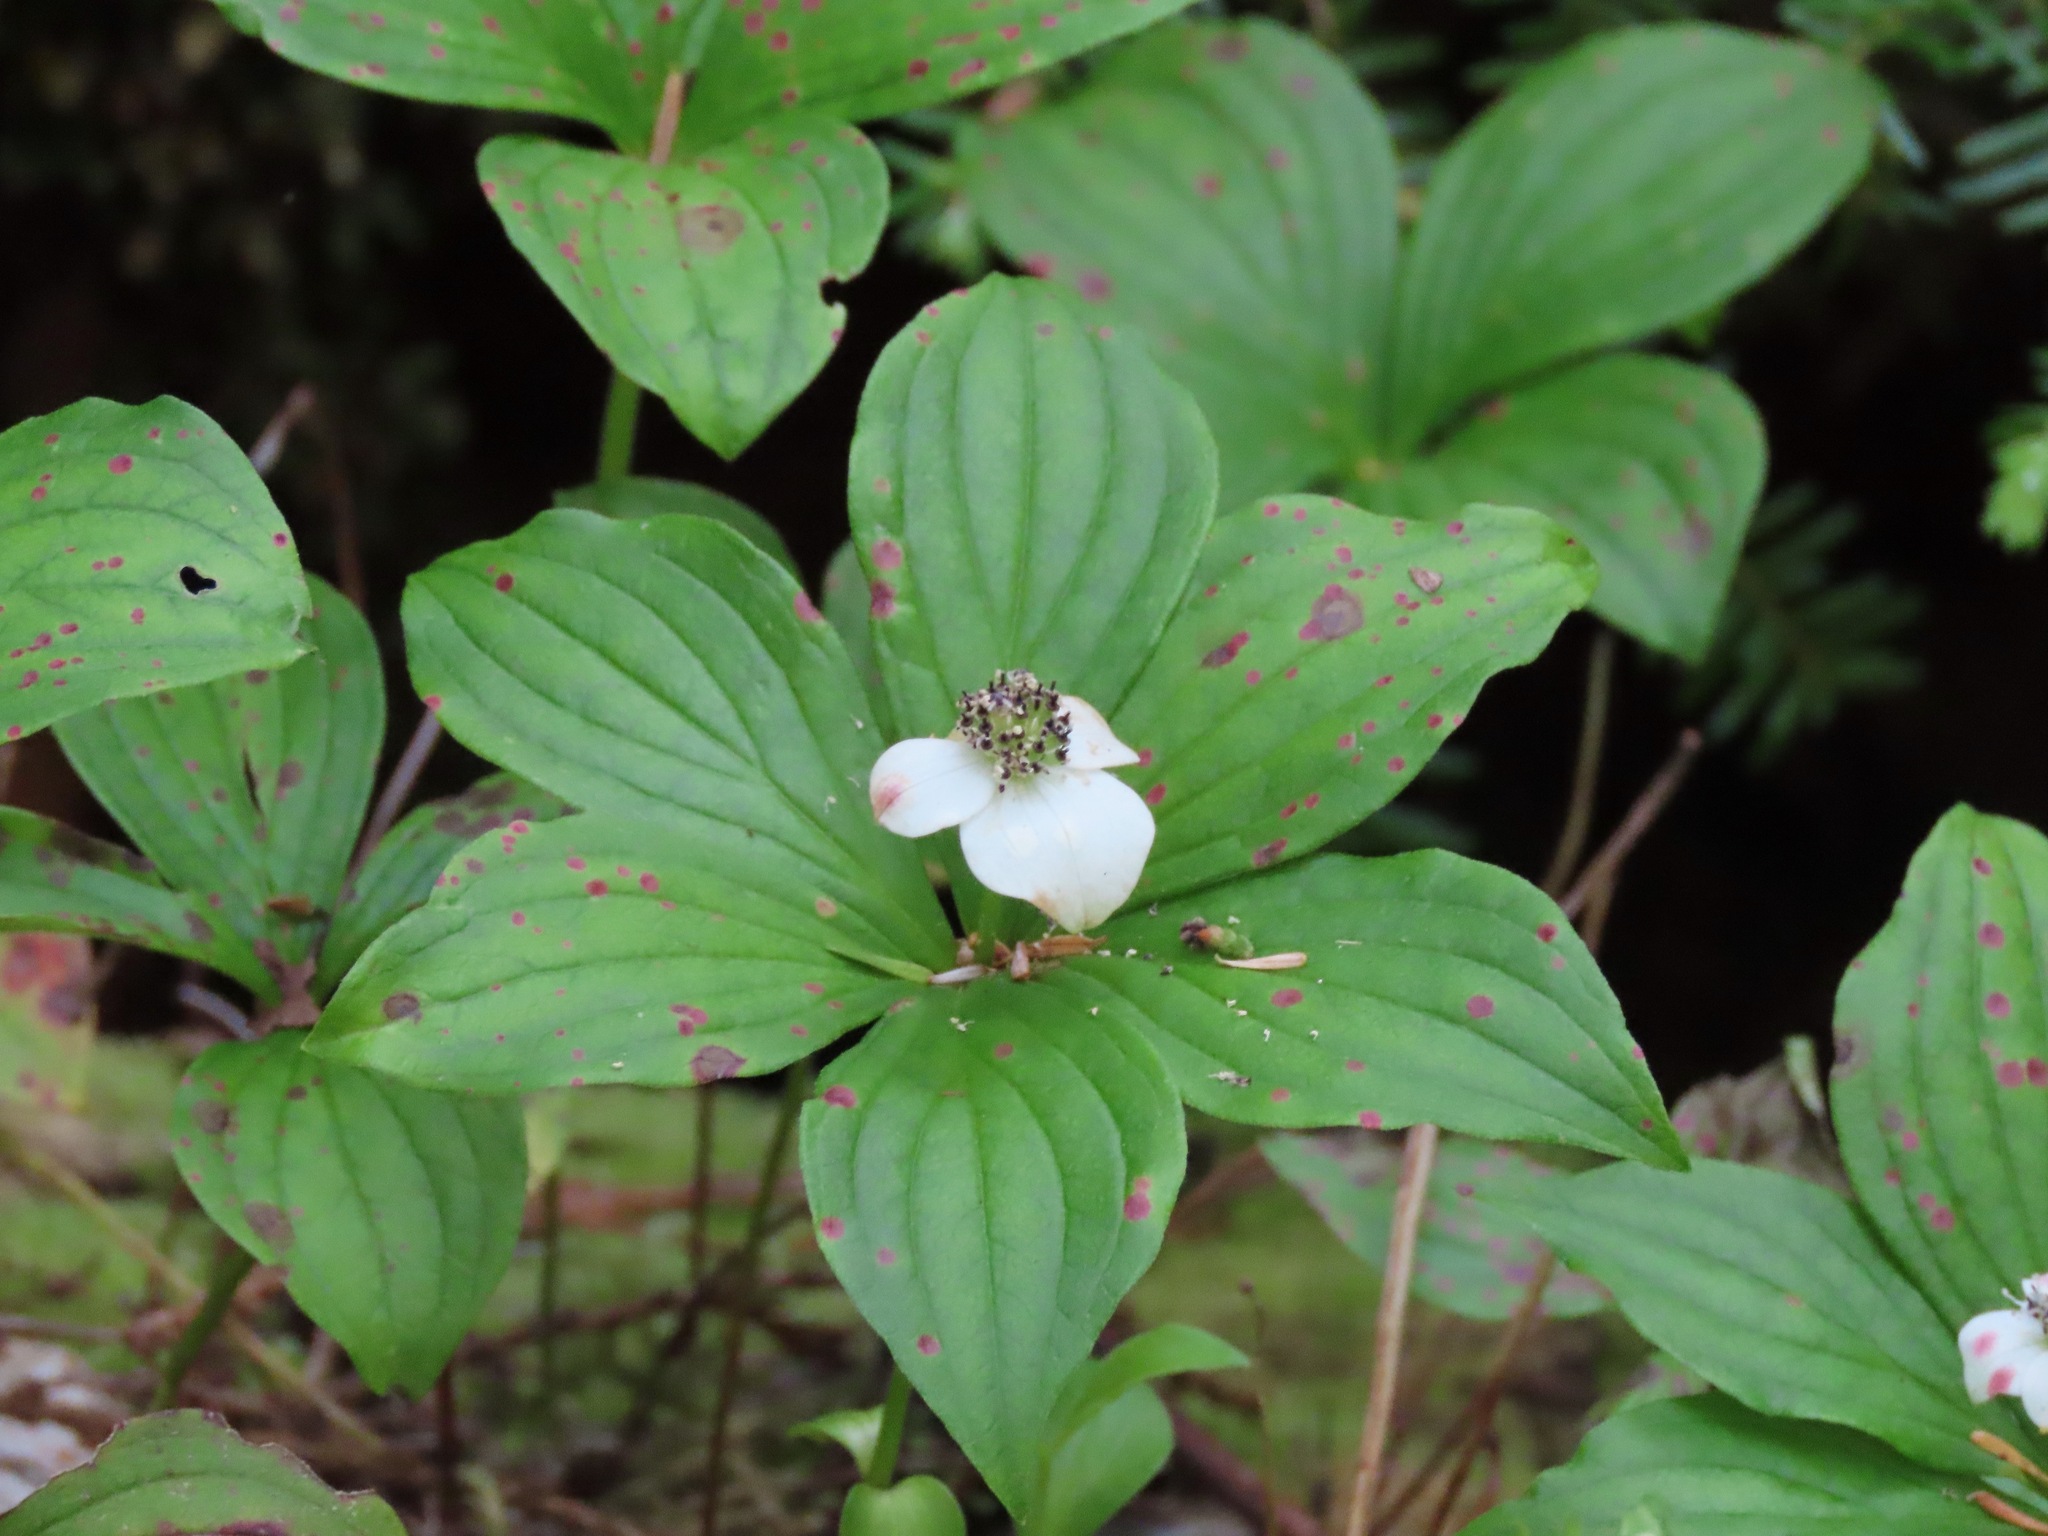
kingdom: Plantae
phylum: Tracheophyta
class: Magnoliopsida
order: Cornales
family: Cornaceae
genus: Cornus
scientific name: Cornus unalaschkensis
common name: Alaska bunchberry
